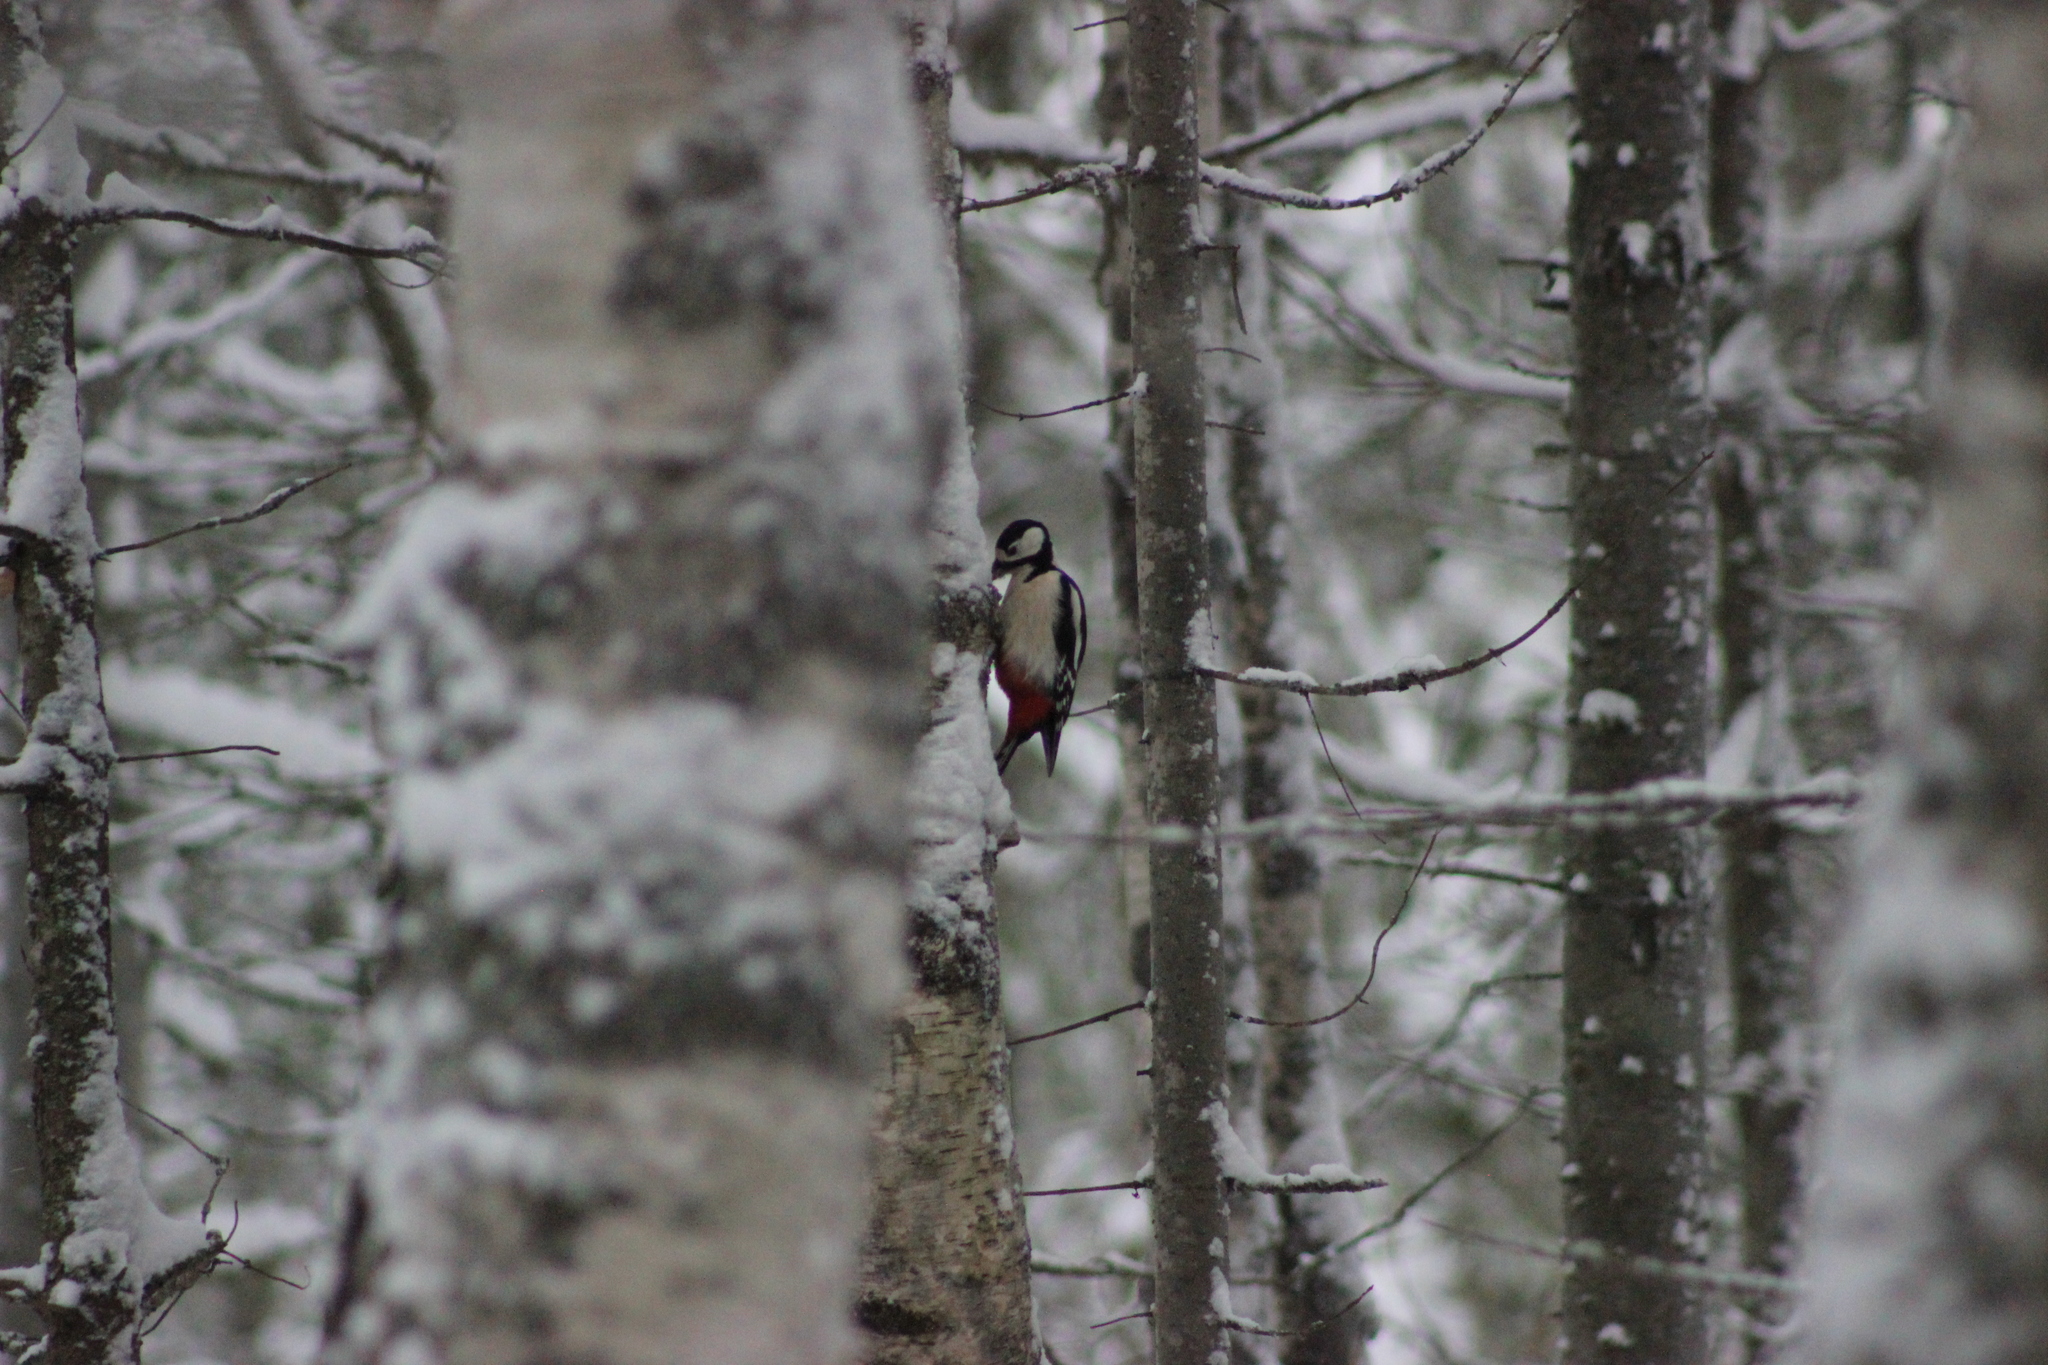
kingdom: Animalia
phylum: Chordata
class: Aves
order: Piciformes
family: Picidae
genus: Dendrocopos
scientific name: Dendrocopos major
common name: Great spotted woodpecker
